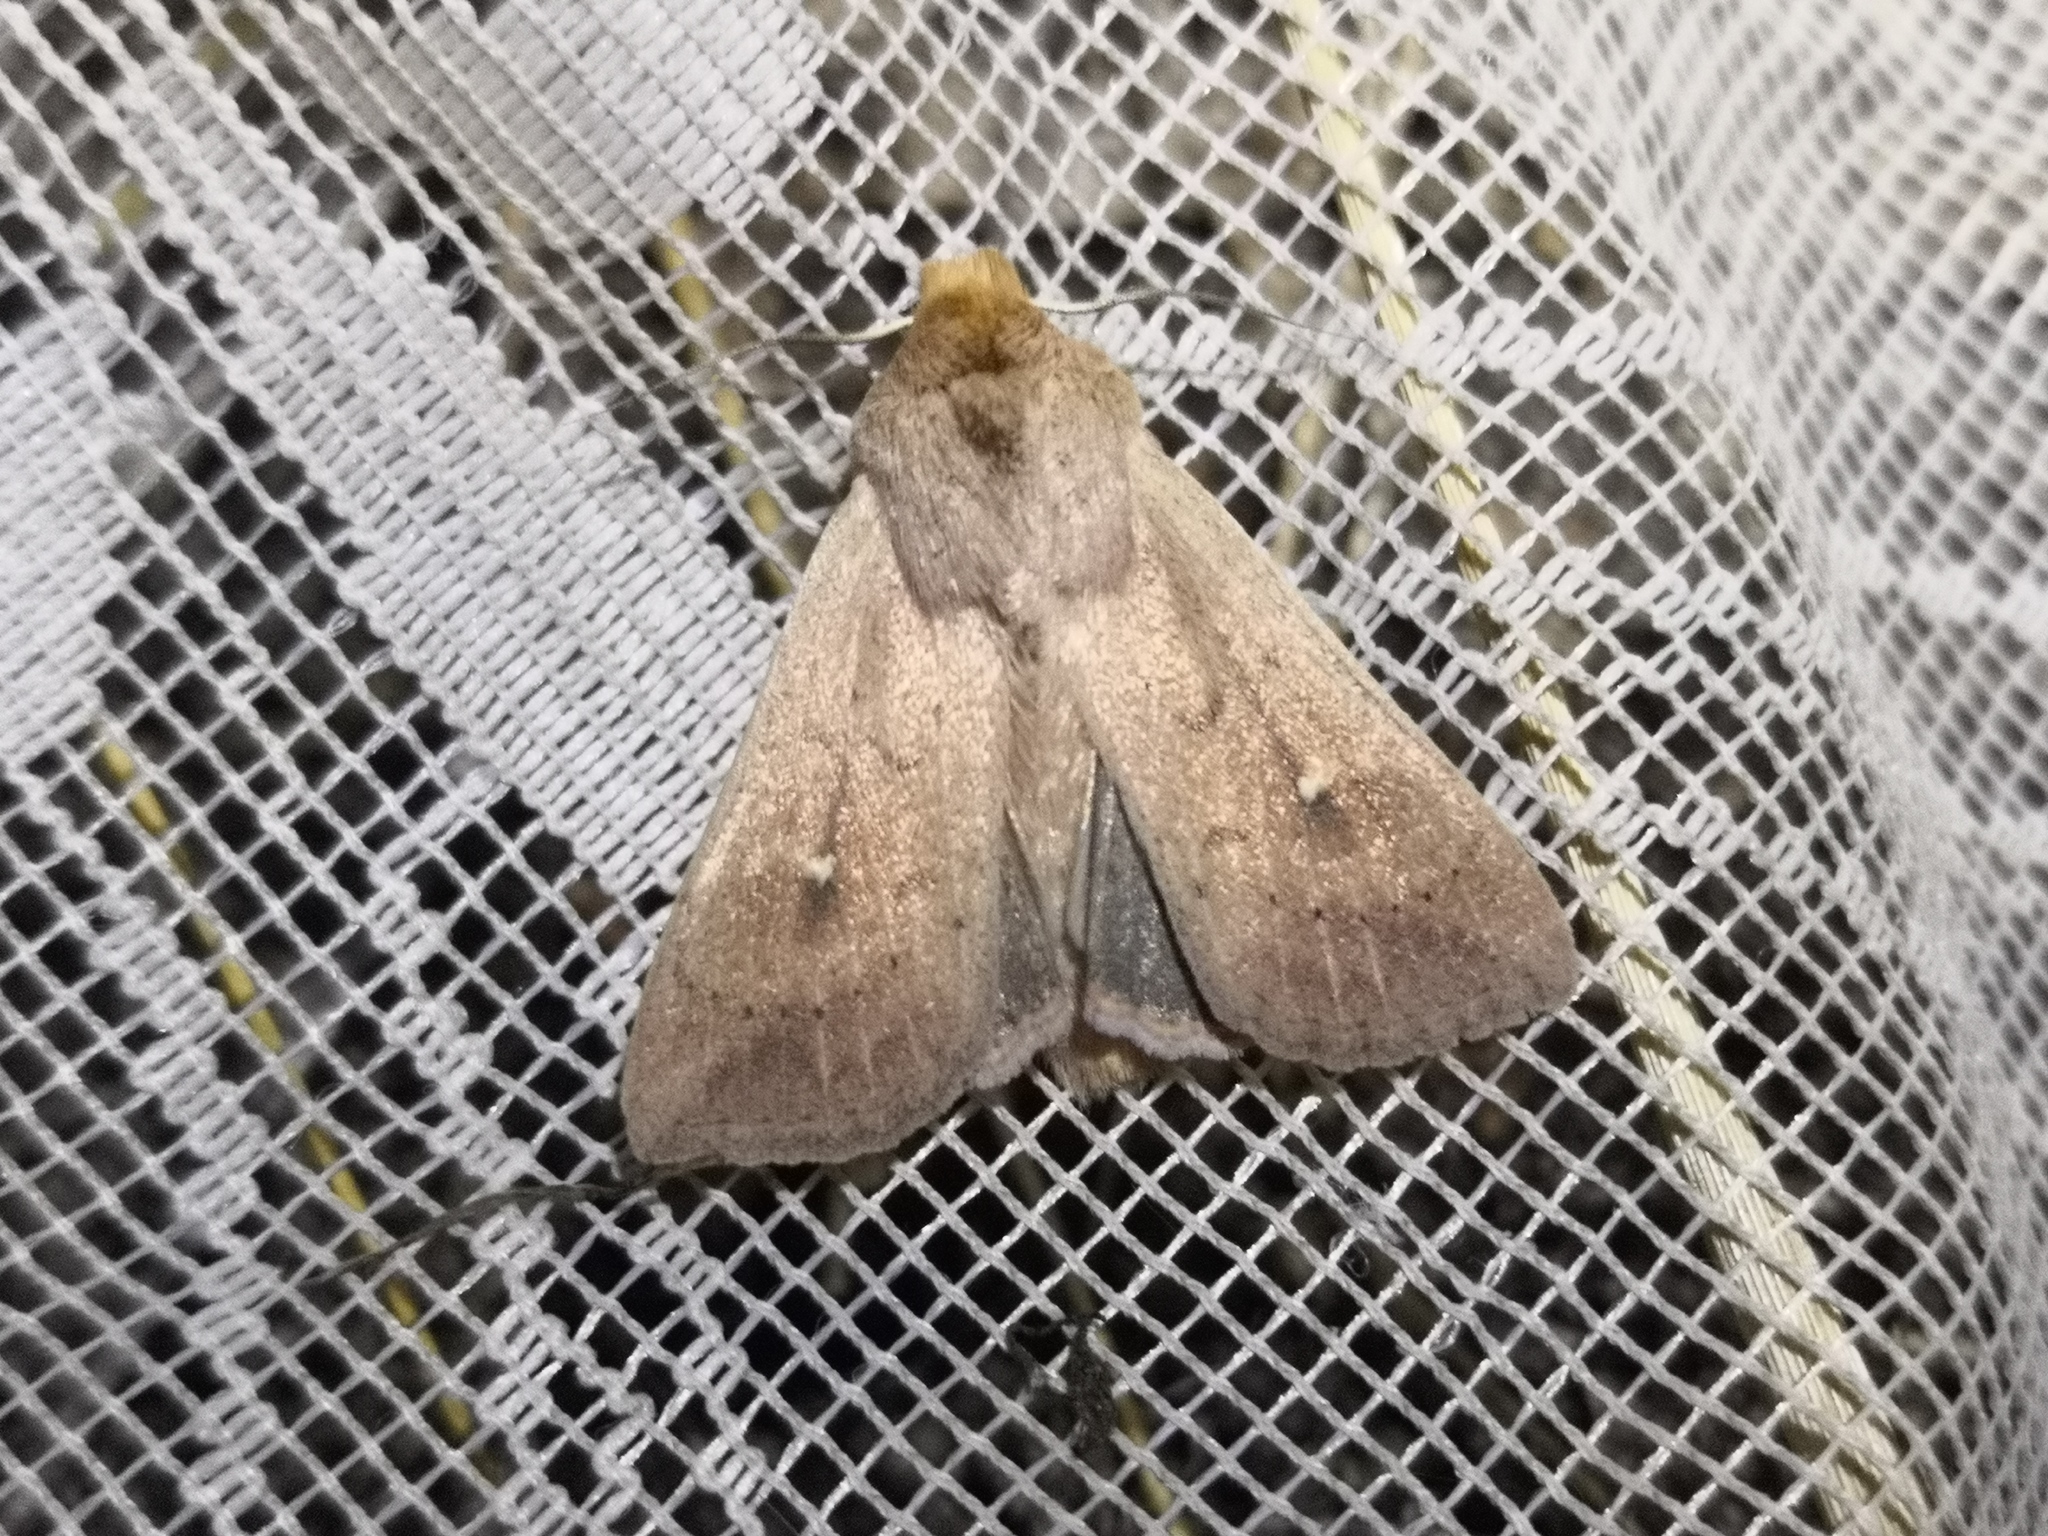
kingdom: Animalia
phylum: Arthropoda
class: Insecta
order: Lepidoptera
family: Noctuidae
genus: Mythimna
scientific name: Mythimna ferrago
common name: Clay
